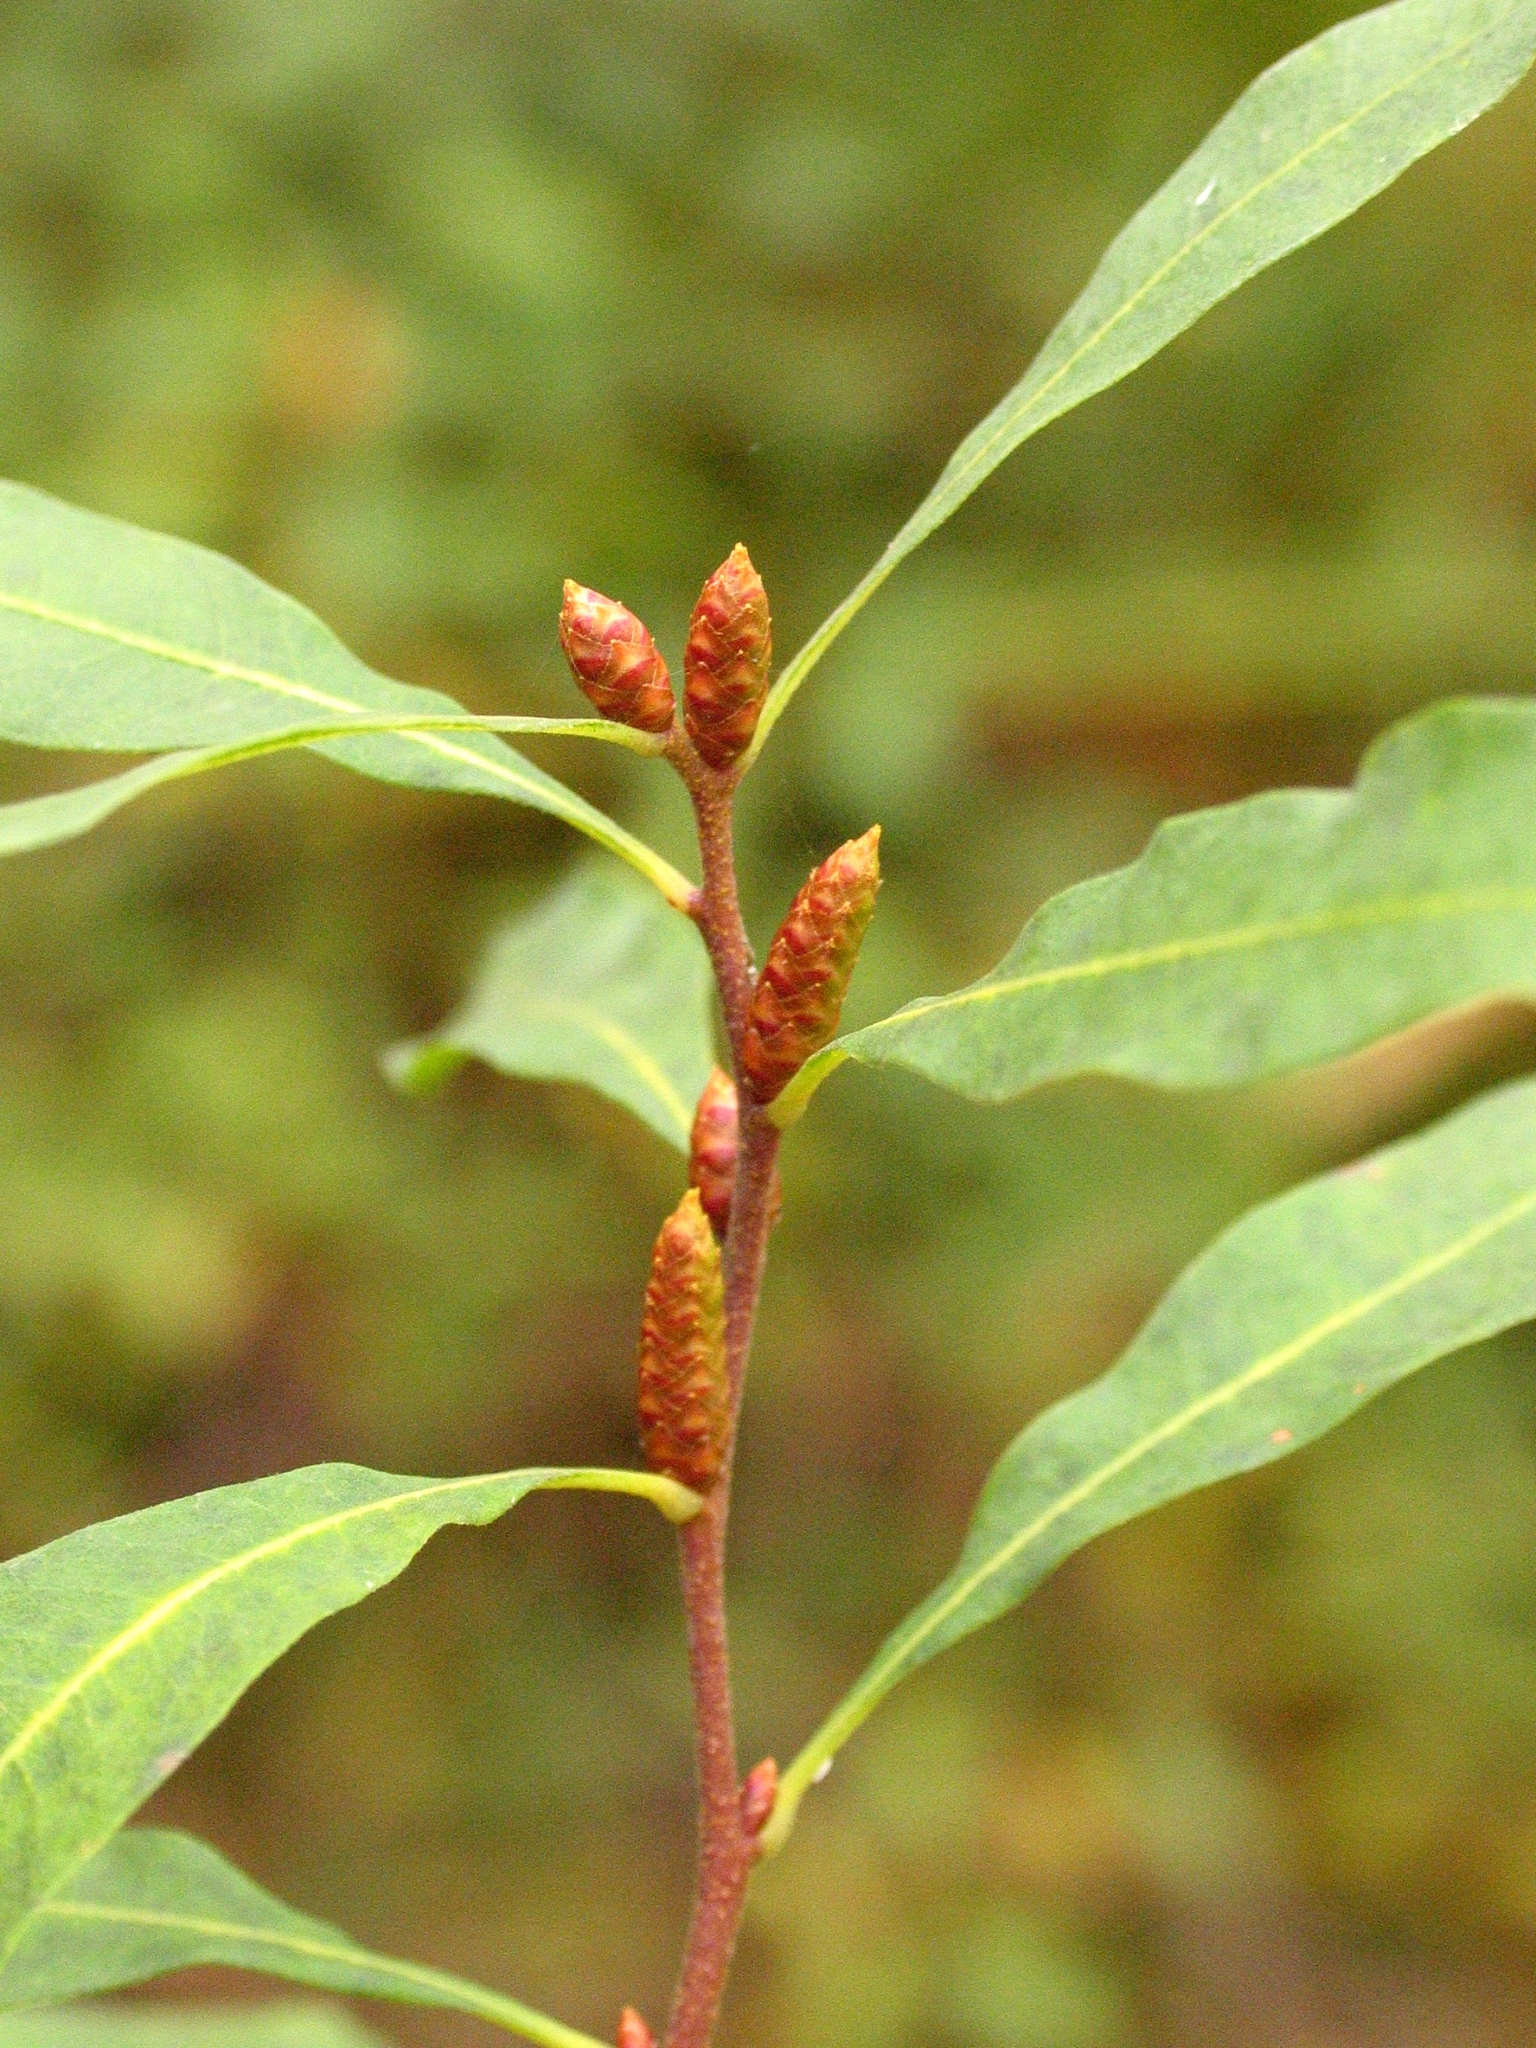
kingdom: Plantae
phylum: Tracheophyta
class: Magnoliopsida
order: Fagales
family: Myricaceae
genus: Myrica
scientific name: Myrica gale
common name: Sweet gale
